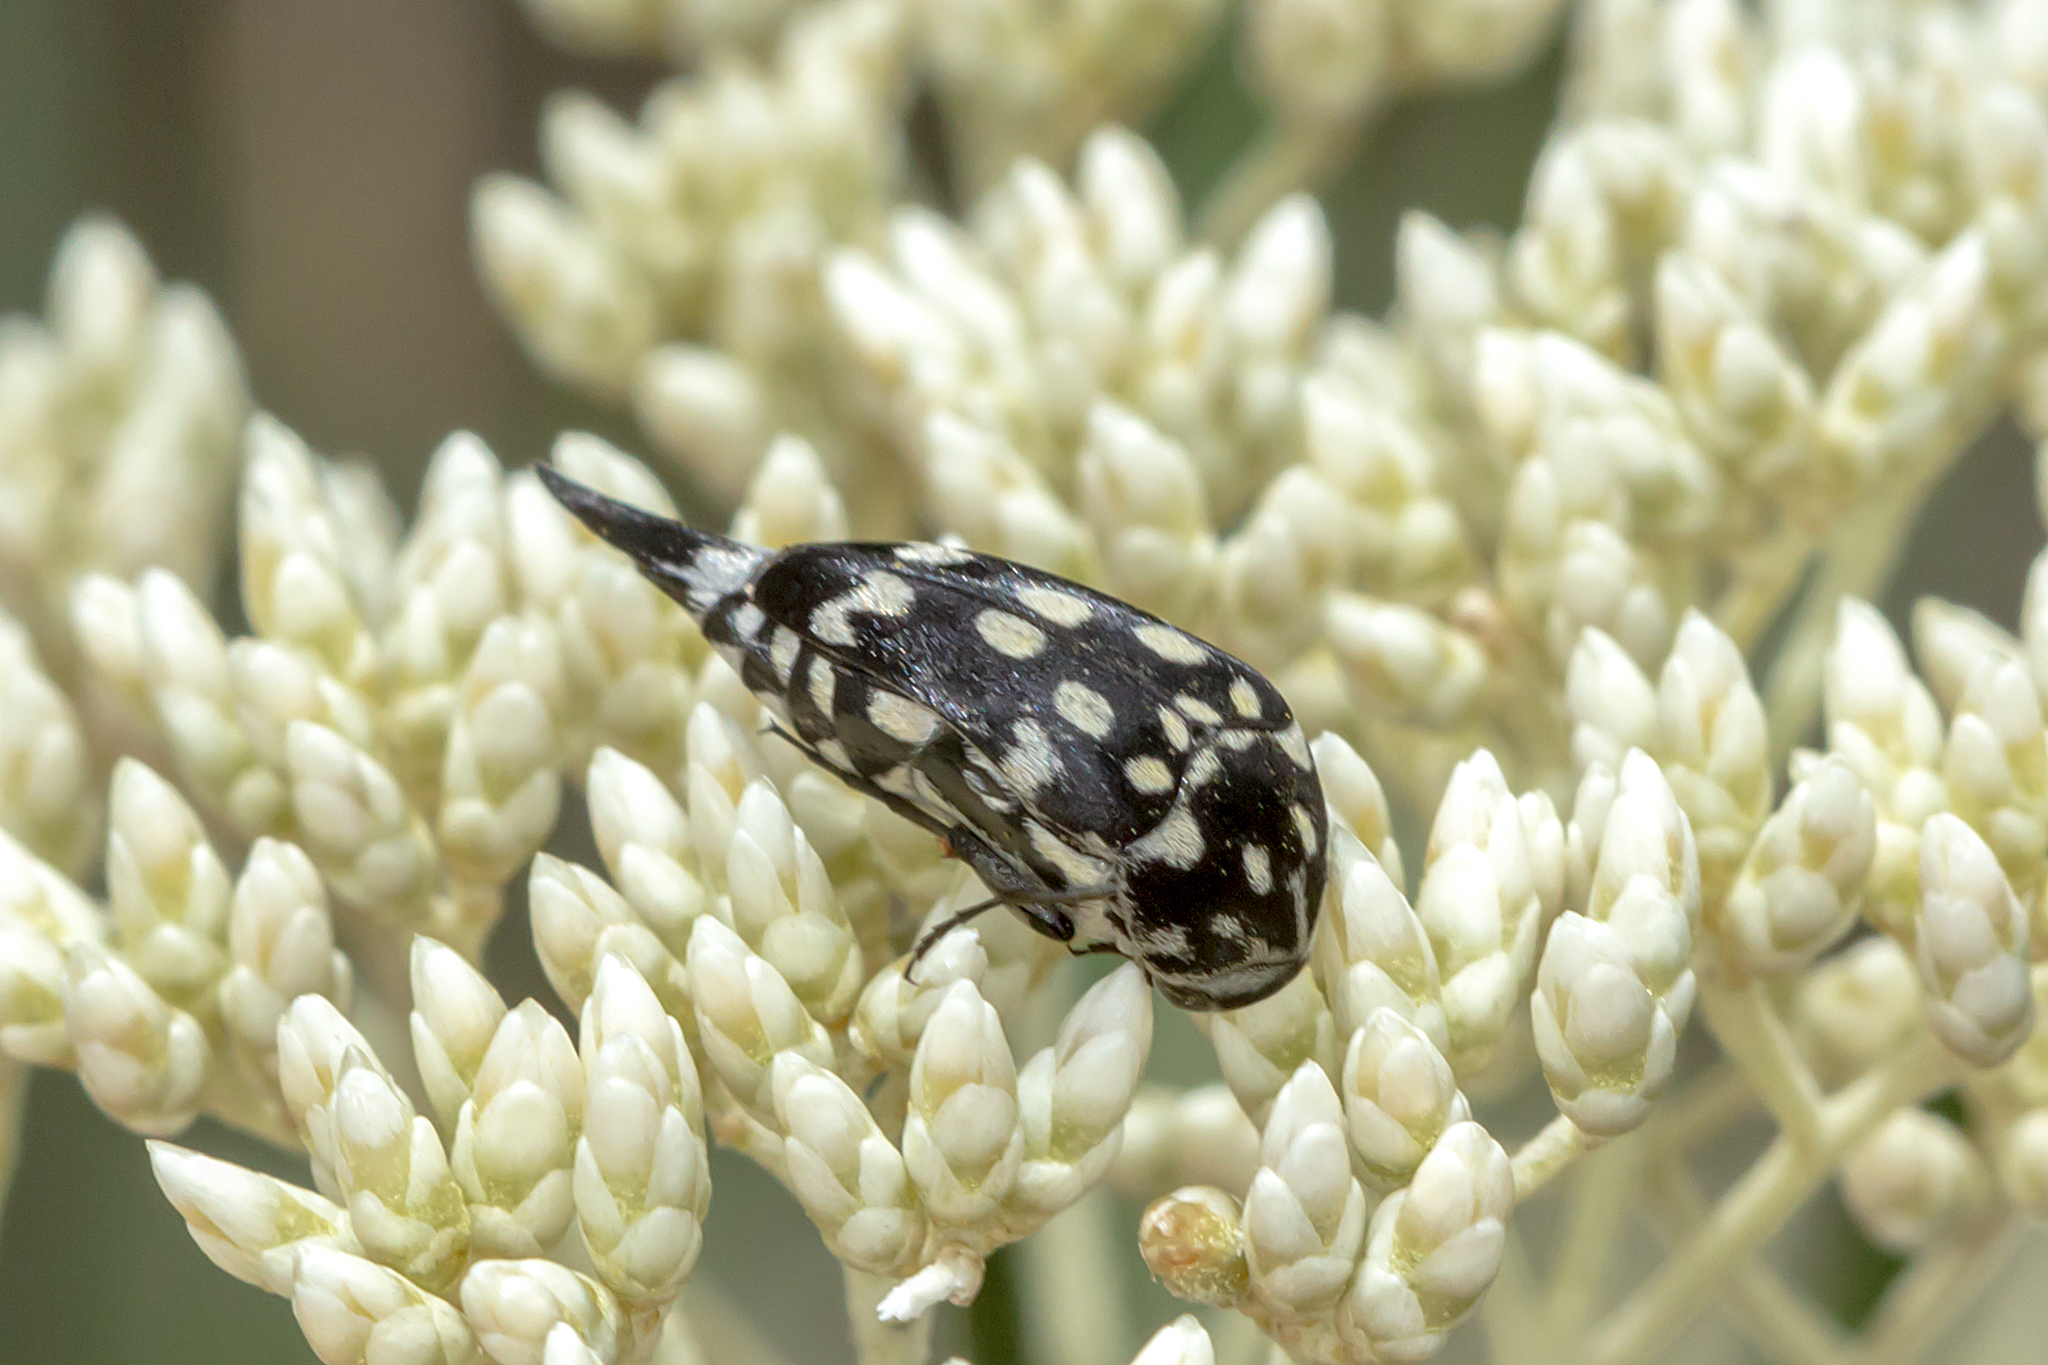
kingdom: Animalia
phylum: Arthropoda
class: Insecta
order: Coleoptera
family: Mordellidae
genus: Hoshihananomia
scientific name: Hoshihananomia
